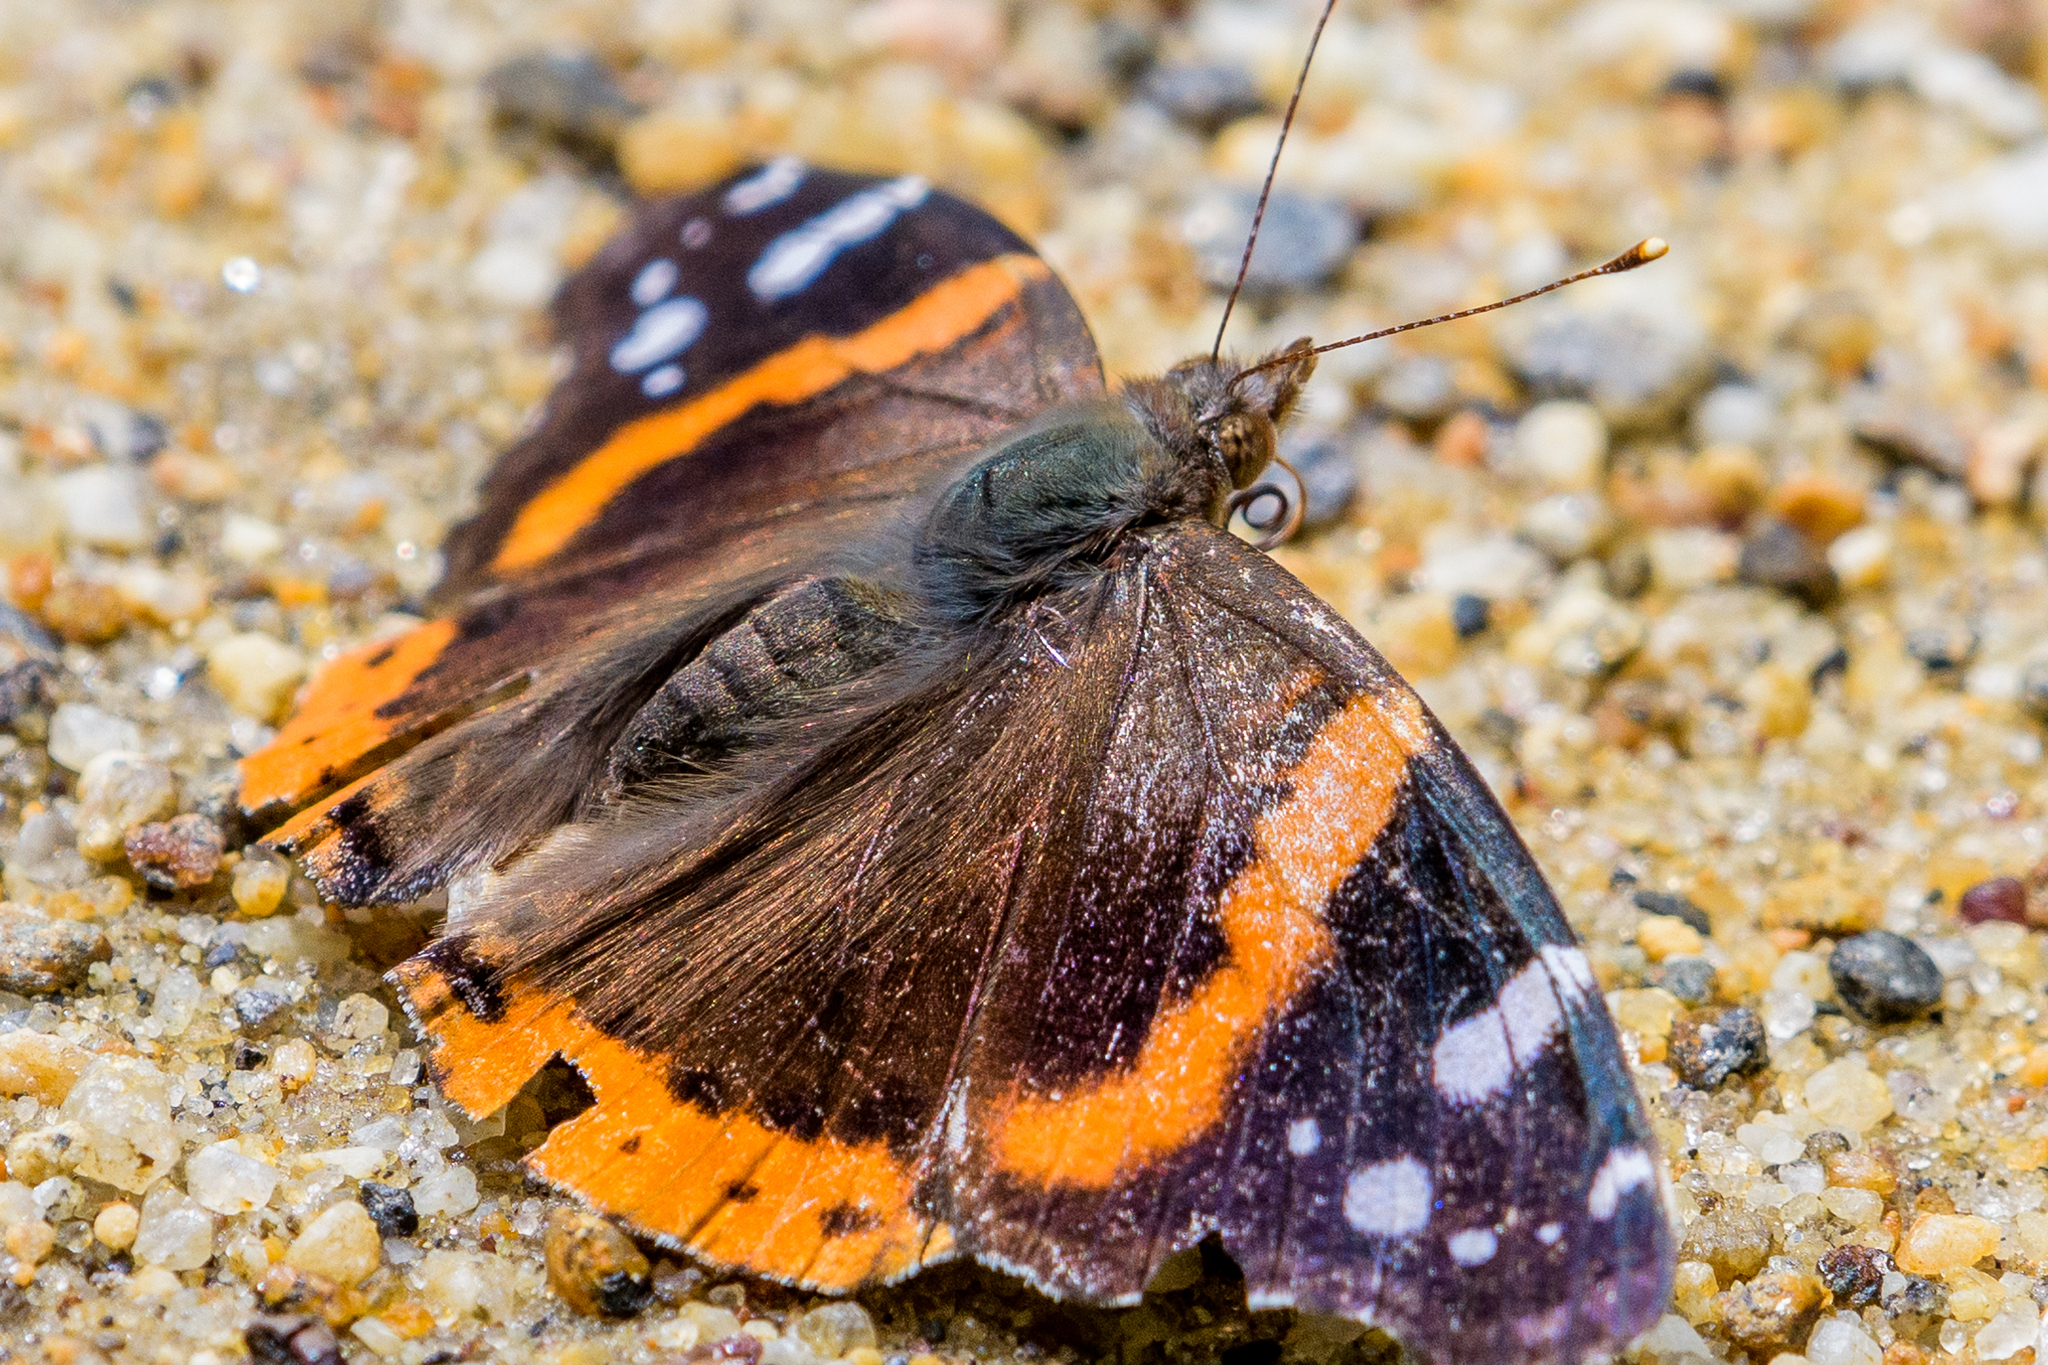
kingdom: Animalia
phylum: Arthropoda
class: Insecta
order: Lepidoptera
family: Nymphalidae
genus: Vanessa
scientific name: Vanessa atalanta
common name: Red admiral
